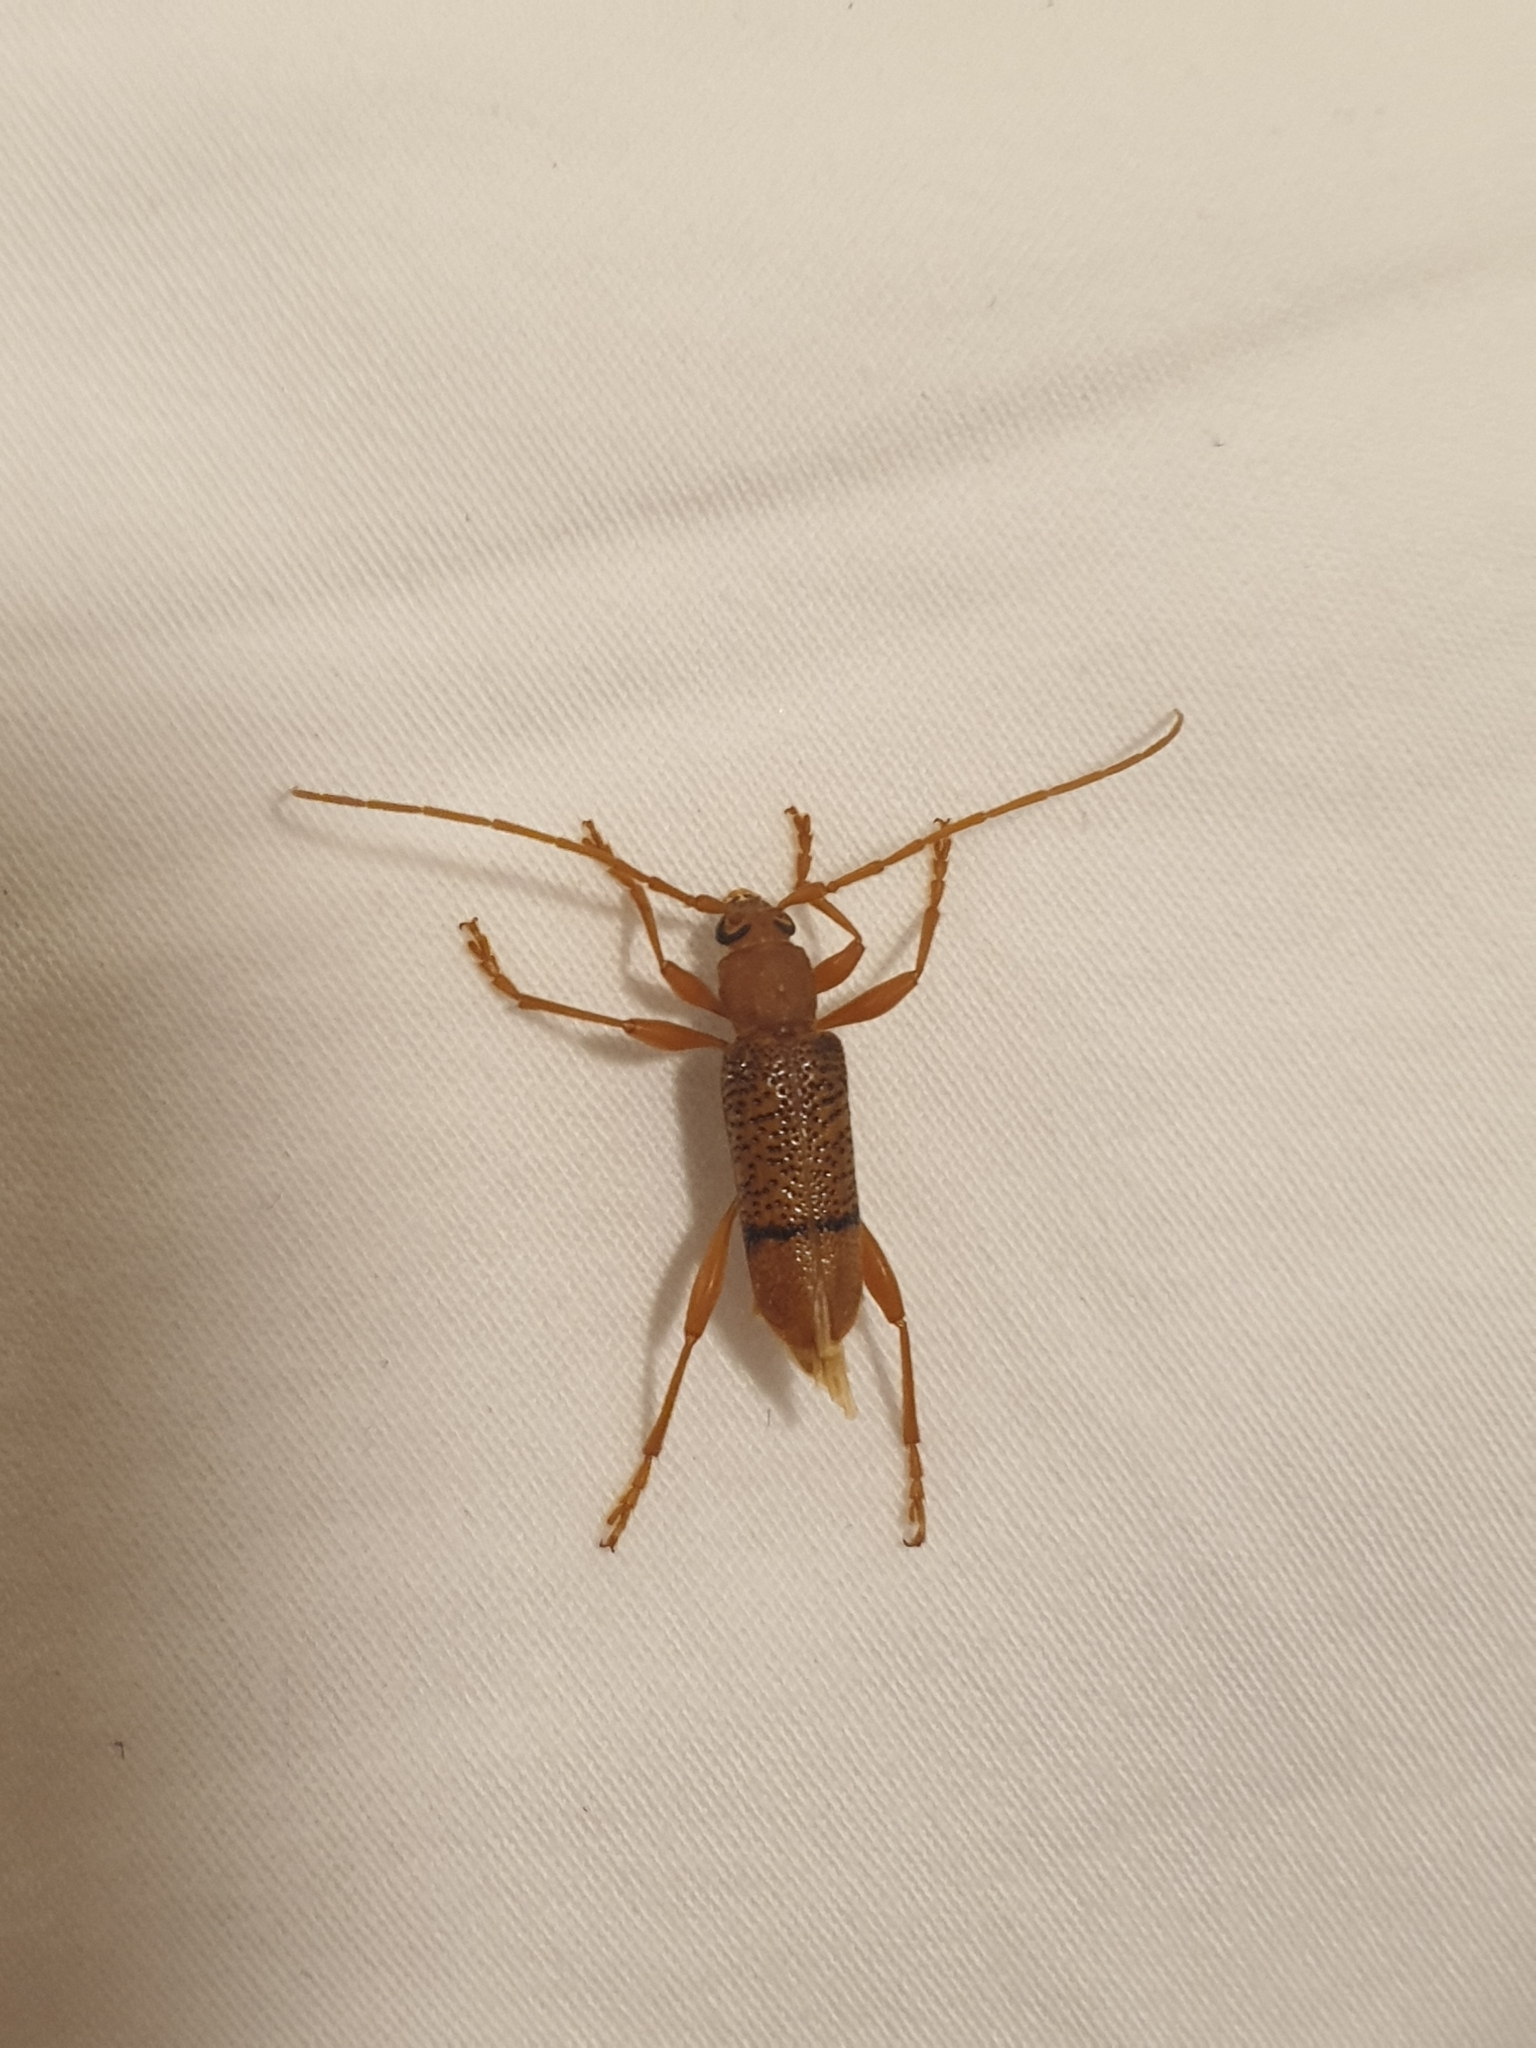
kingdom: Animalia
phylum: Arthropoda
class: Insecta
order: Coleoptera
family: Cerambycidae
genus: Xuthodes
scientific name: Xuthodes punctipennis
